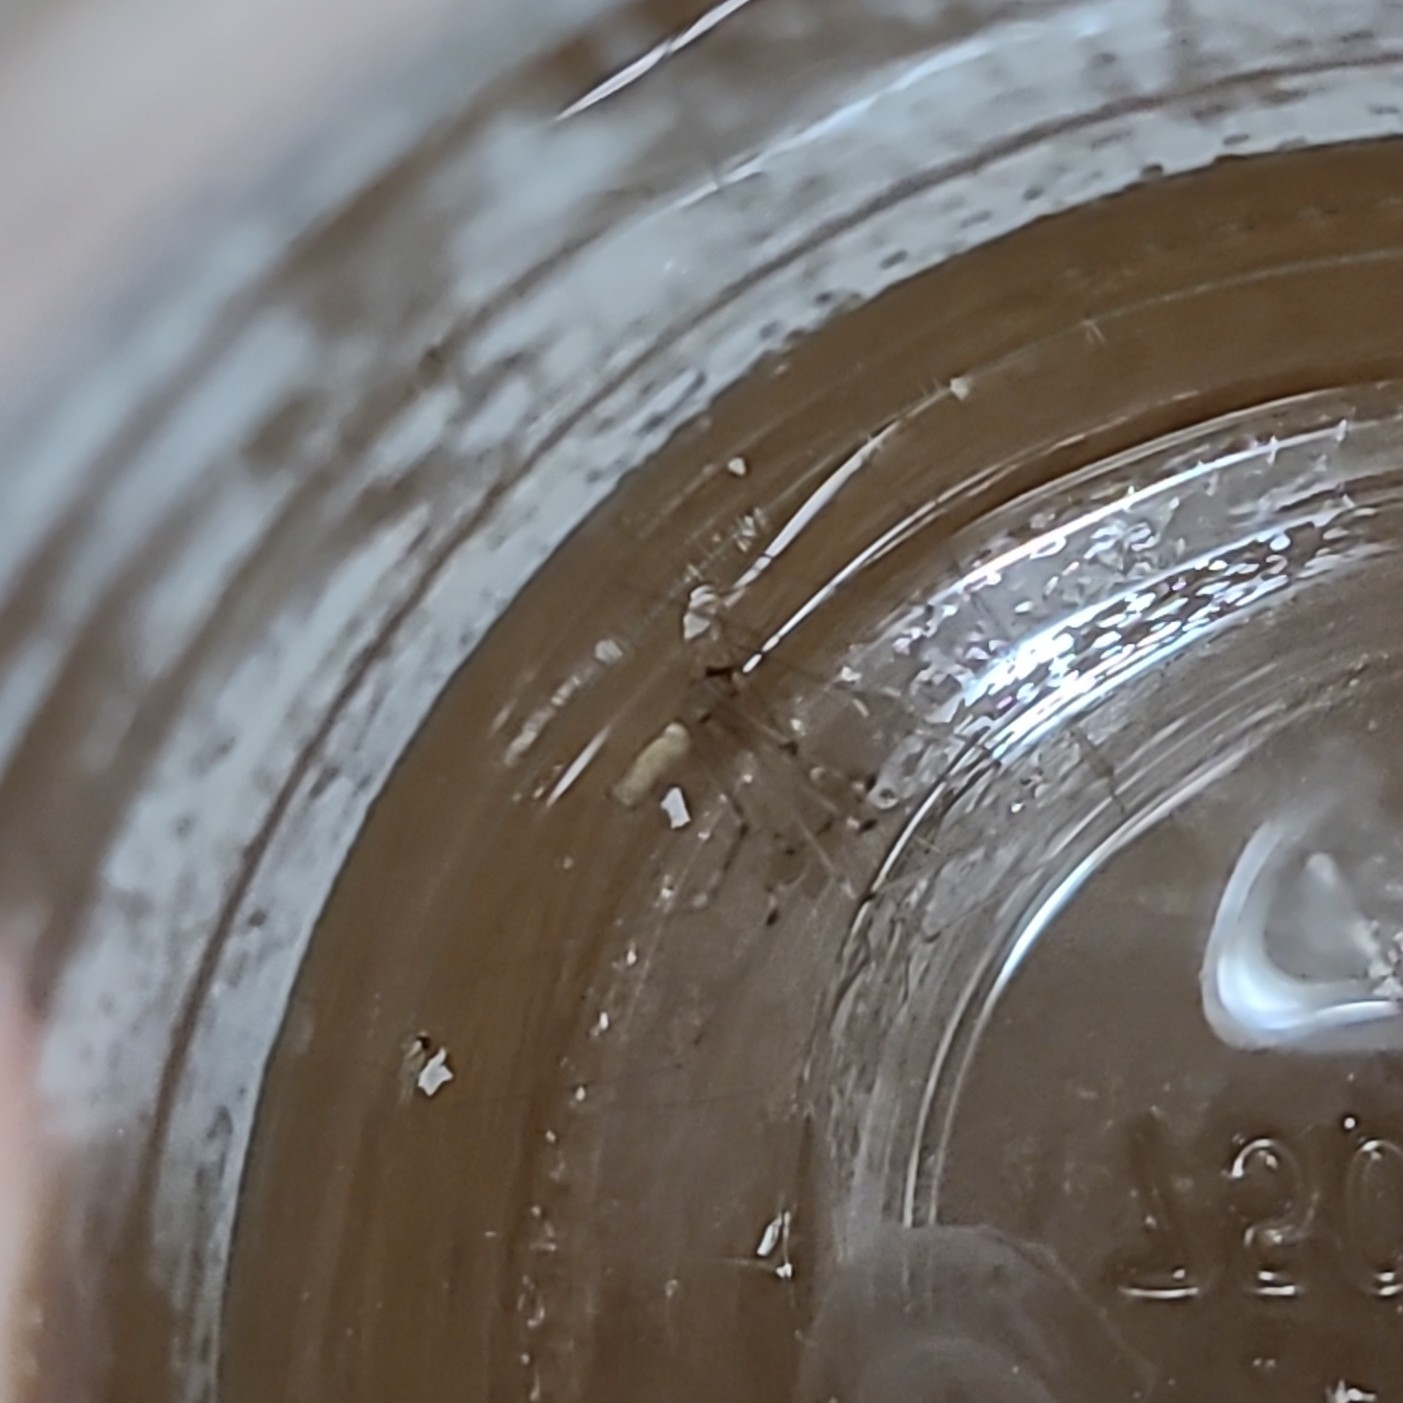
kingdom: Animalia
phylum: Arthropoda
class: Arachnida
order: Araneae
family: Pholcidae
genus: Pholcus
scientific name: Pholcus phalangioides
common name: Longbodied cellar spider
